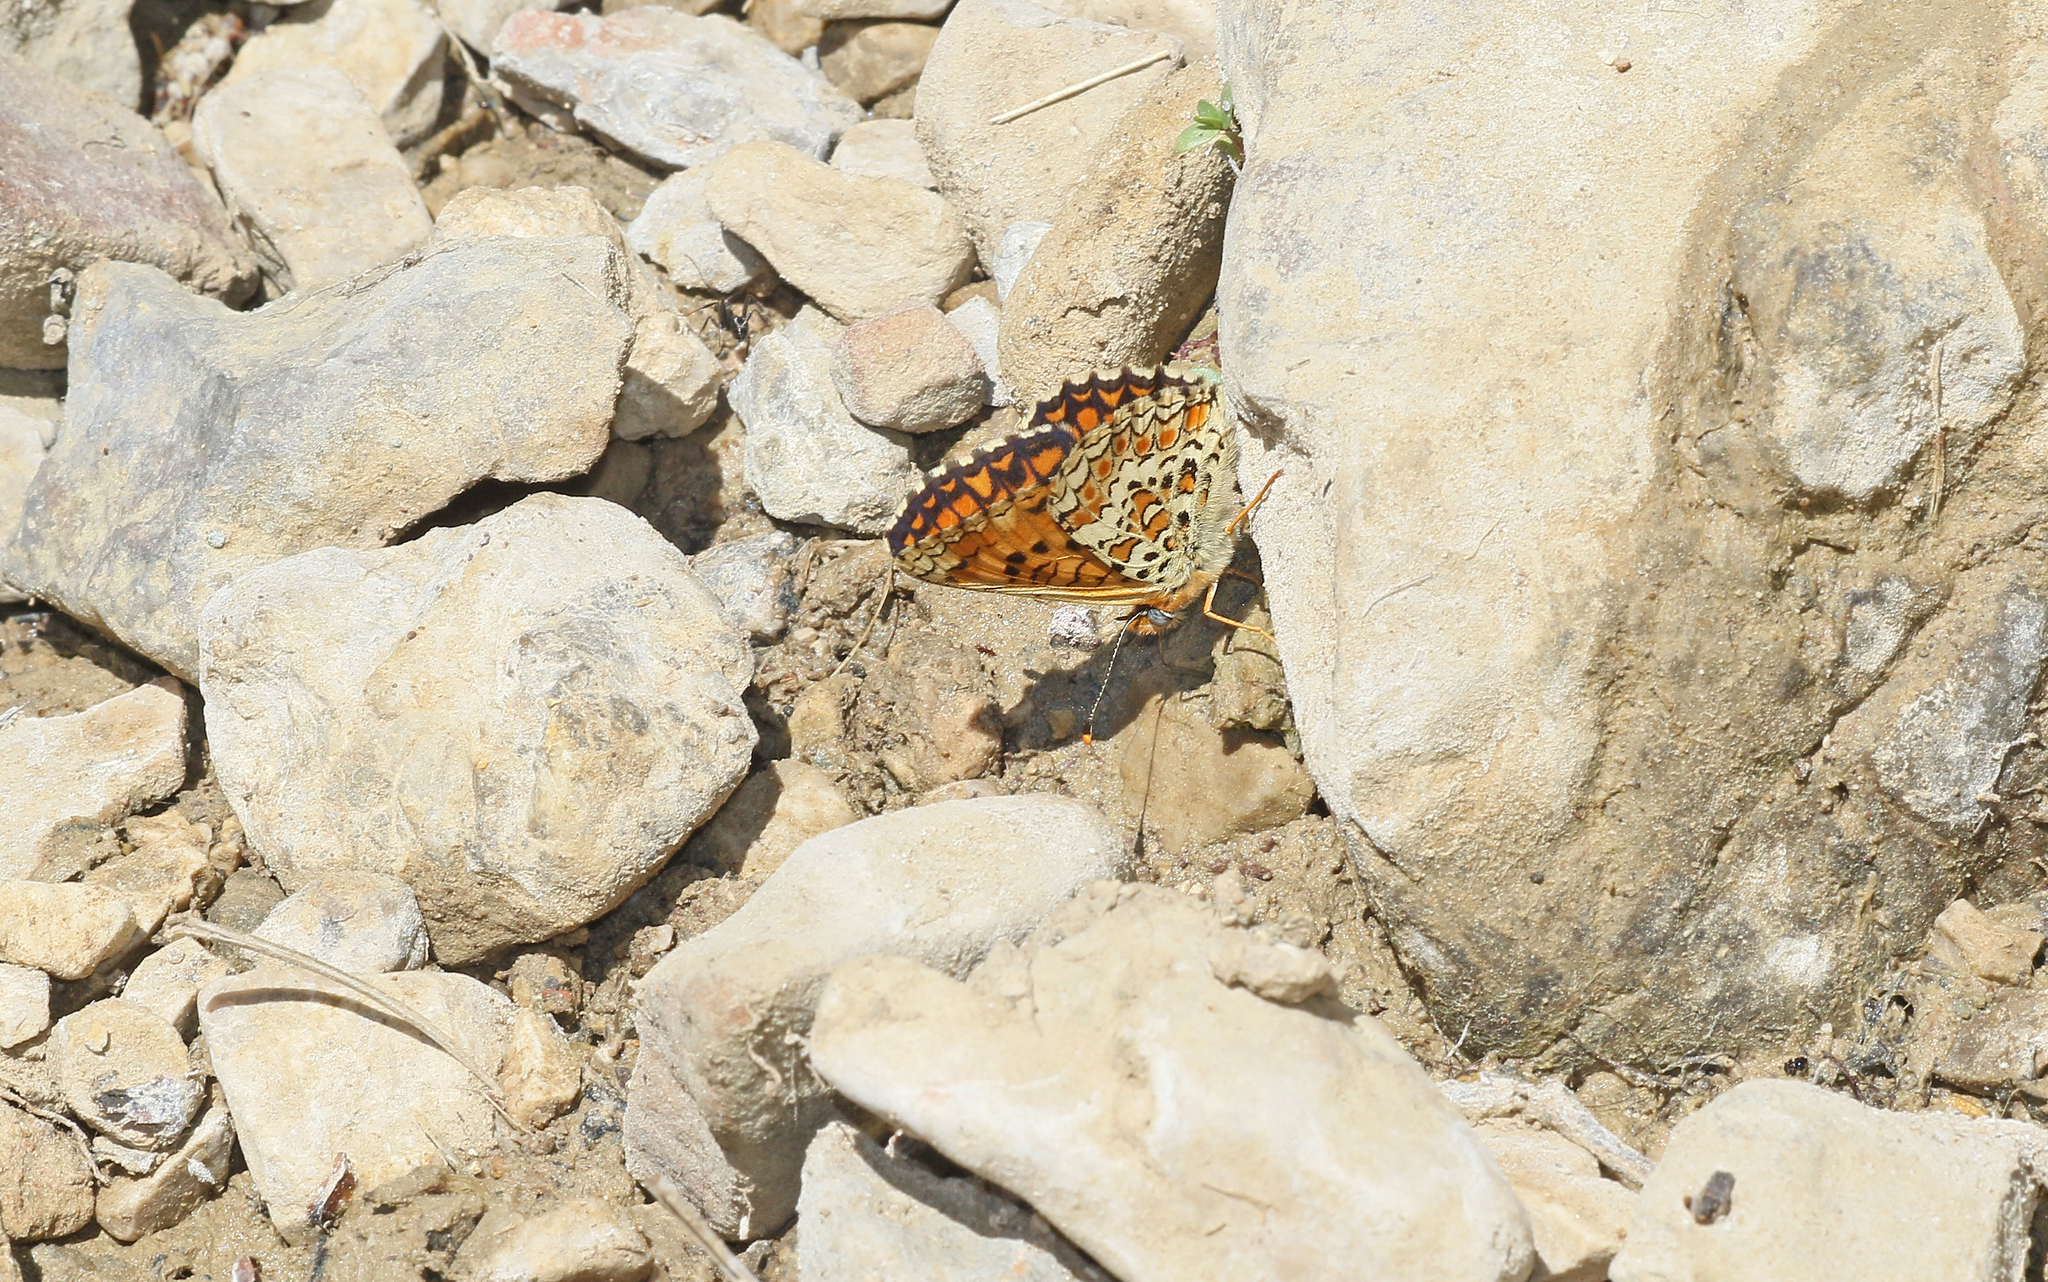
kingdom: Animalia
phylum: Arthropoda
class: Insecta
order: Lepidoptera
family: Nymphalidae
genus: Melitaea
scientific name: Melitaea phoebe
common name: Knapweed fritillary
